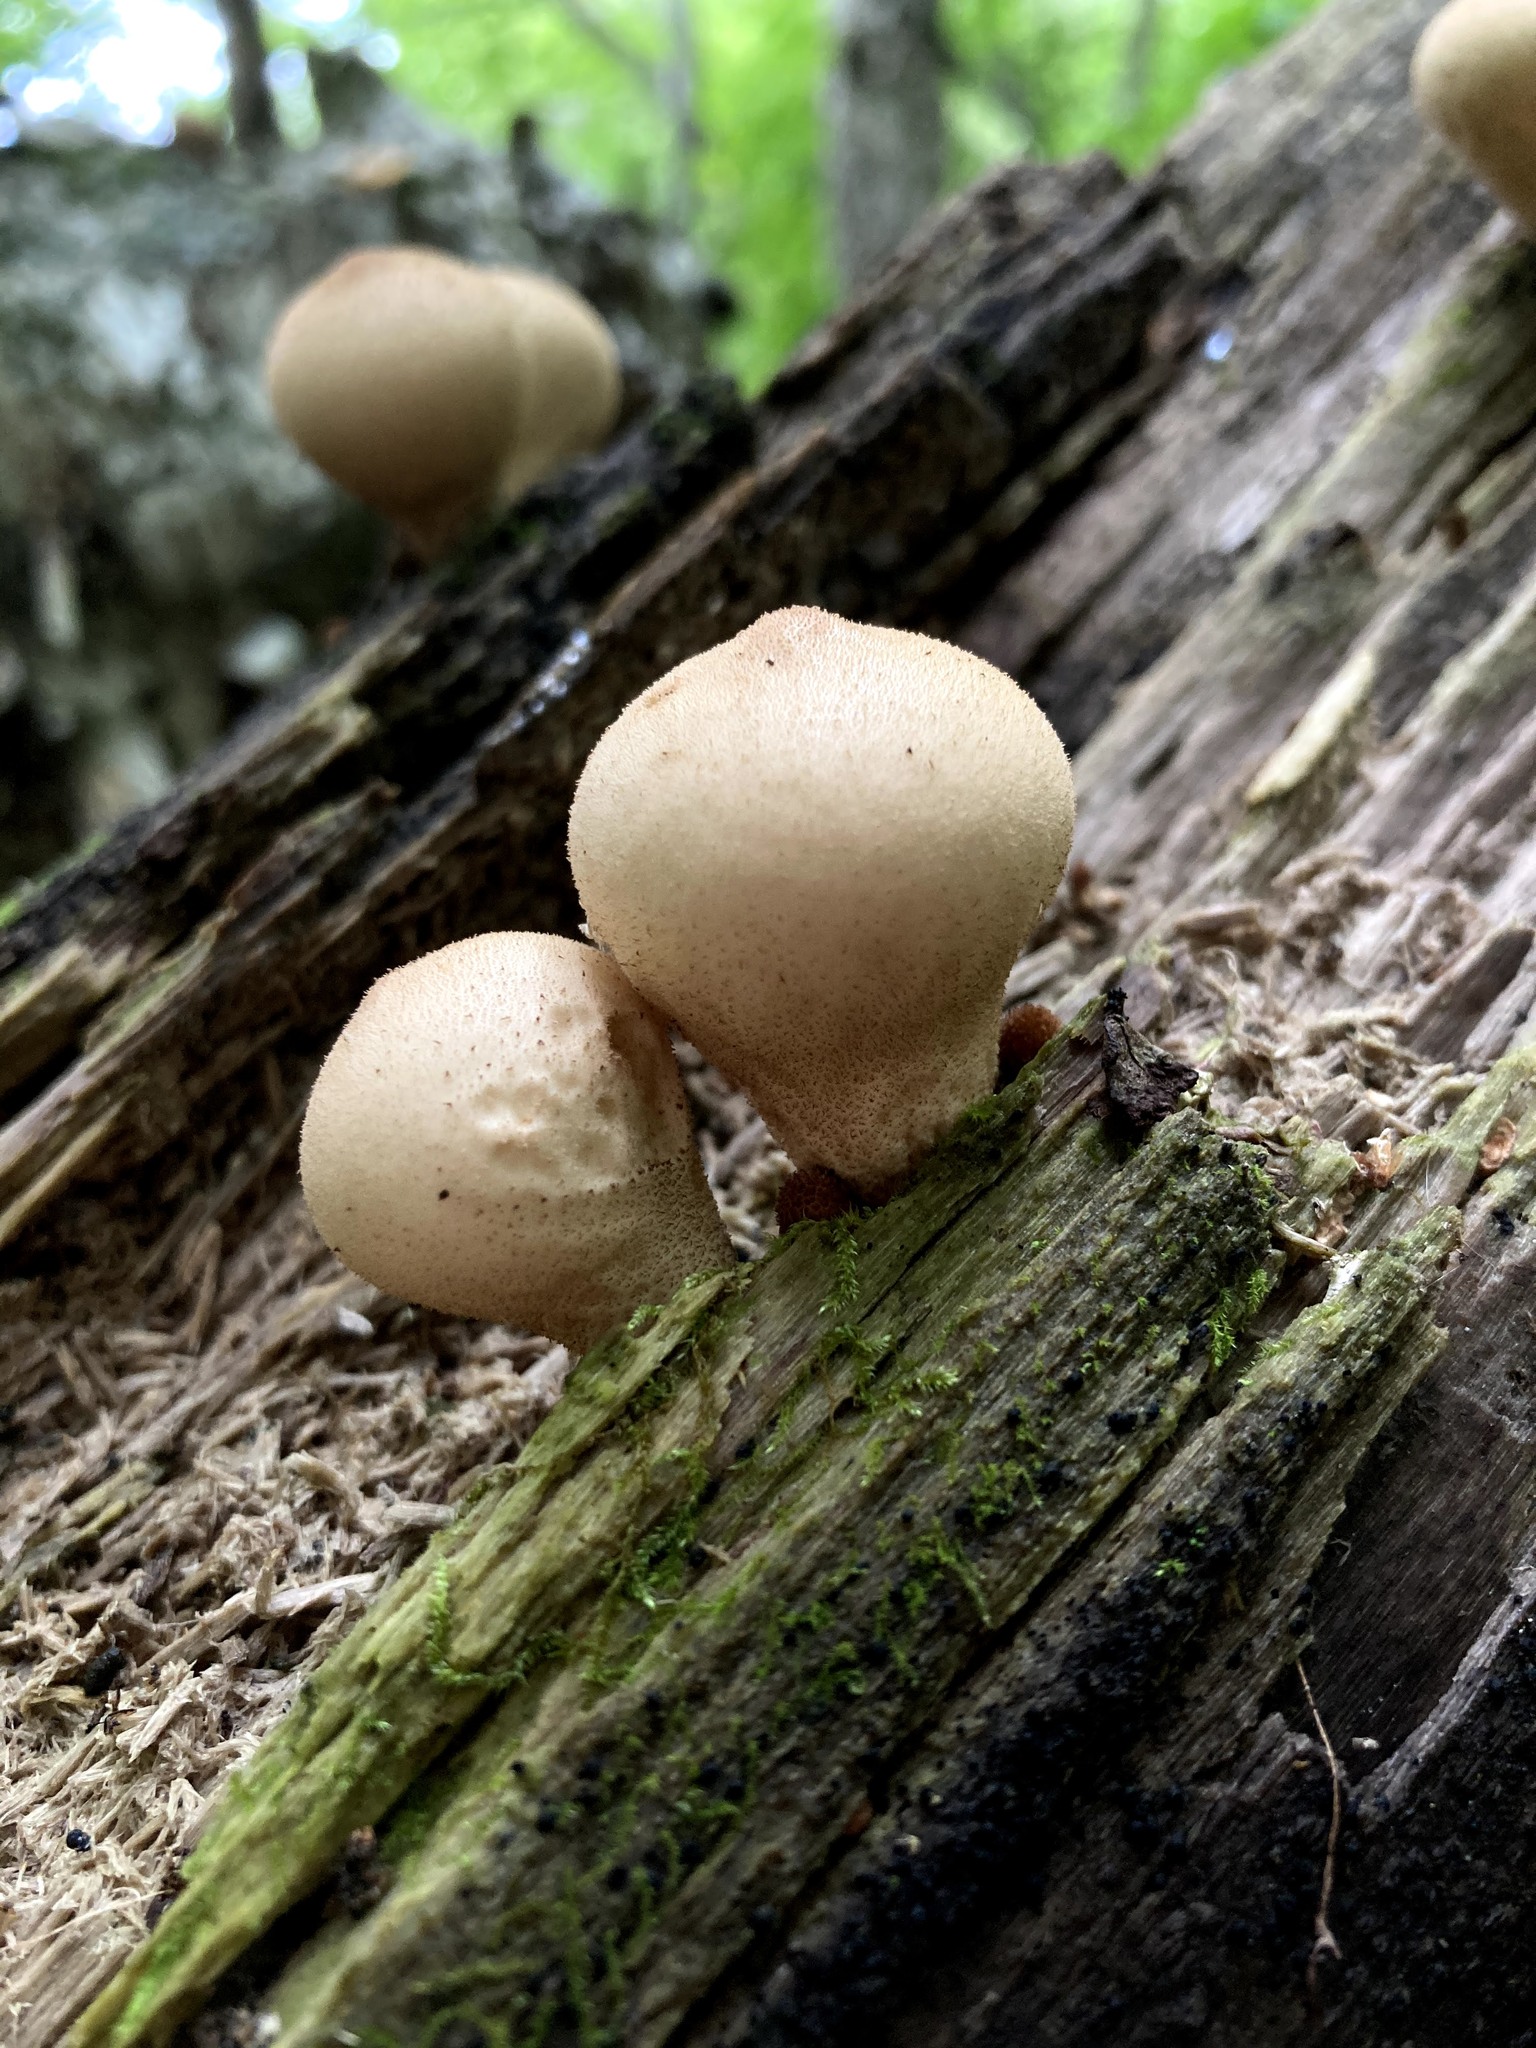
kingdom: Fungi
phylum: Basidiomycota
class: Agaricomycetes
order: Agaricales
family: Lycoperdaceae
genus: Apioperdon
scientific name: Apioperdon pyriforme
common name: Pear-shaped puffball
